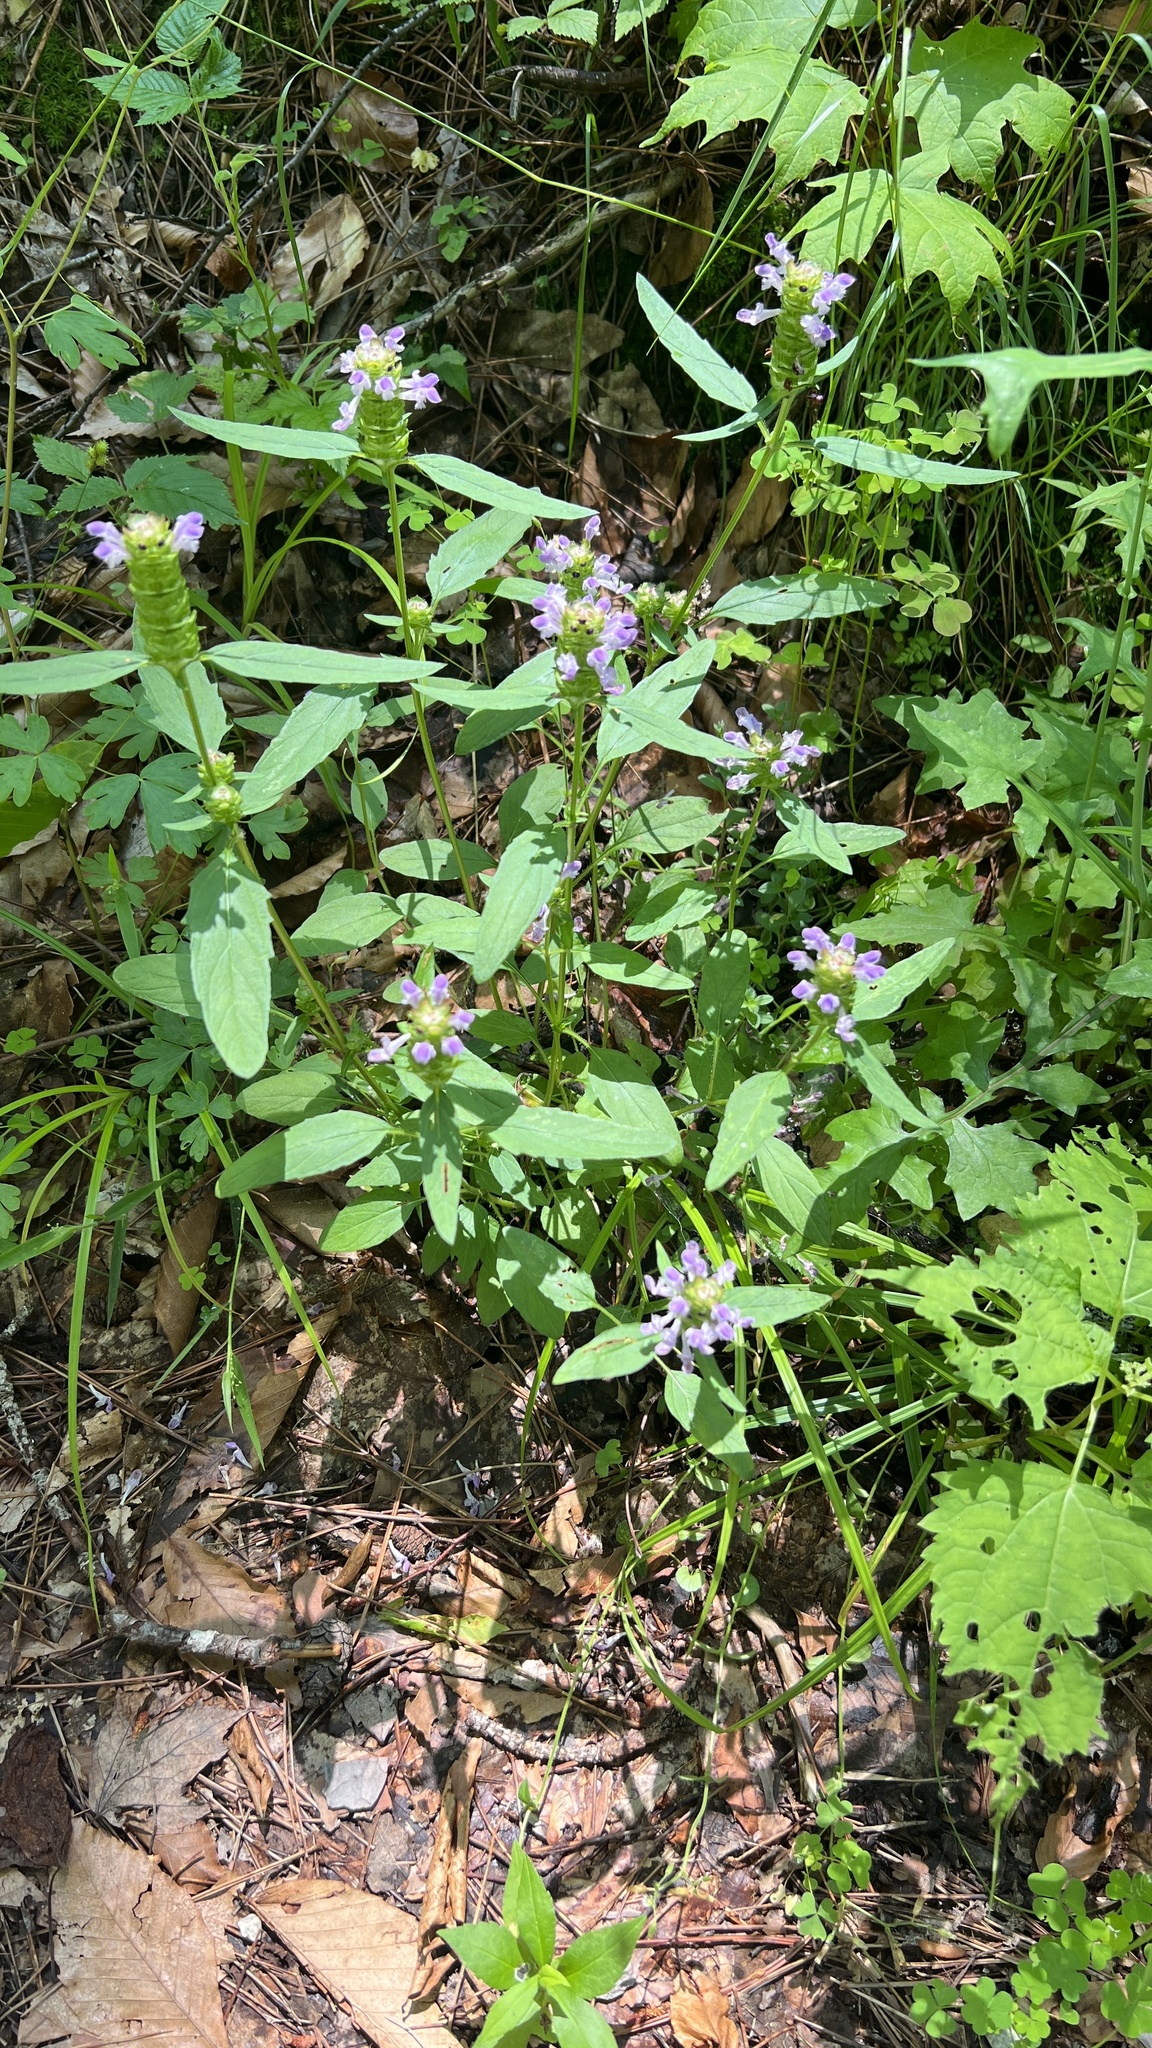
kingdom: Plantae
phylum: Tracheophyta
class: Magnoliopsida
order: Lamiales
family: Lamiaceae
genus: Prunella
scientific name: Prunella vulgaris
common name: Heal-all
